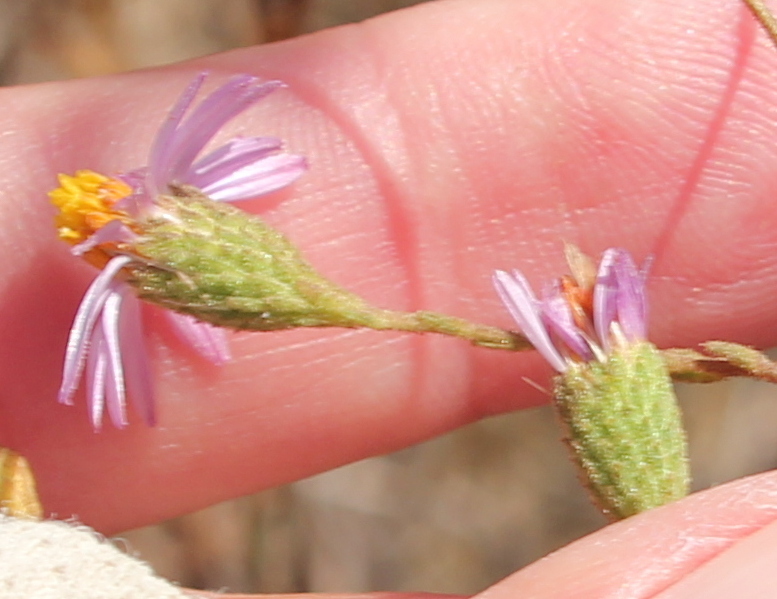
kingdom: Plantae
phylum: Tracheophyta
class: Magnoliopsida
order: Asterales
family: Asteraceae
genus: Corethrogyne
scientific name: Corethrogyne filaginifolia
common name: Sand-aster
